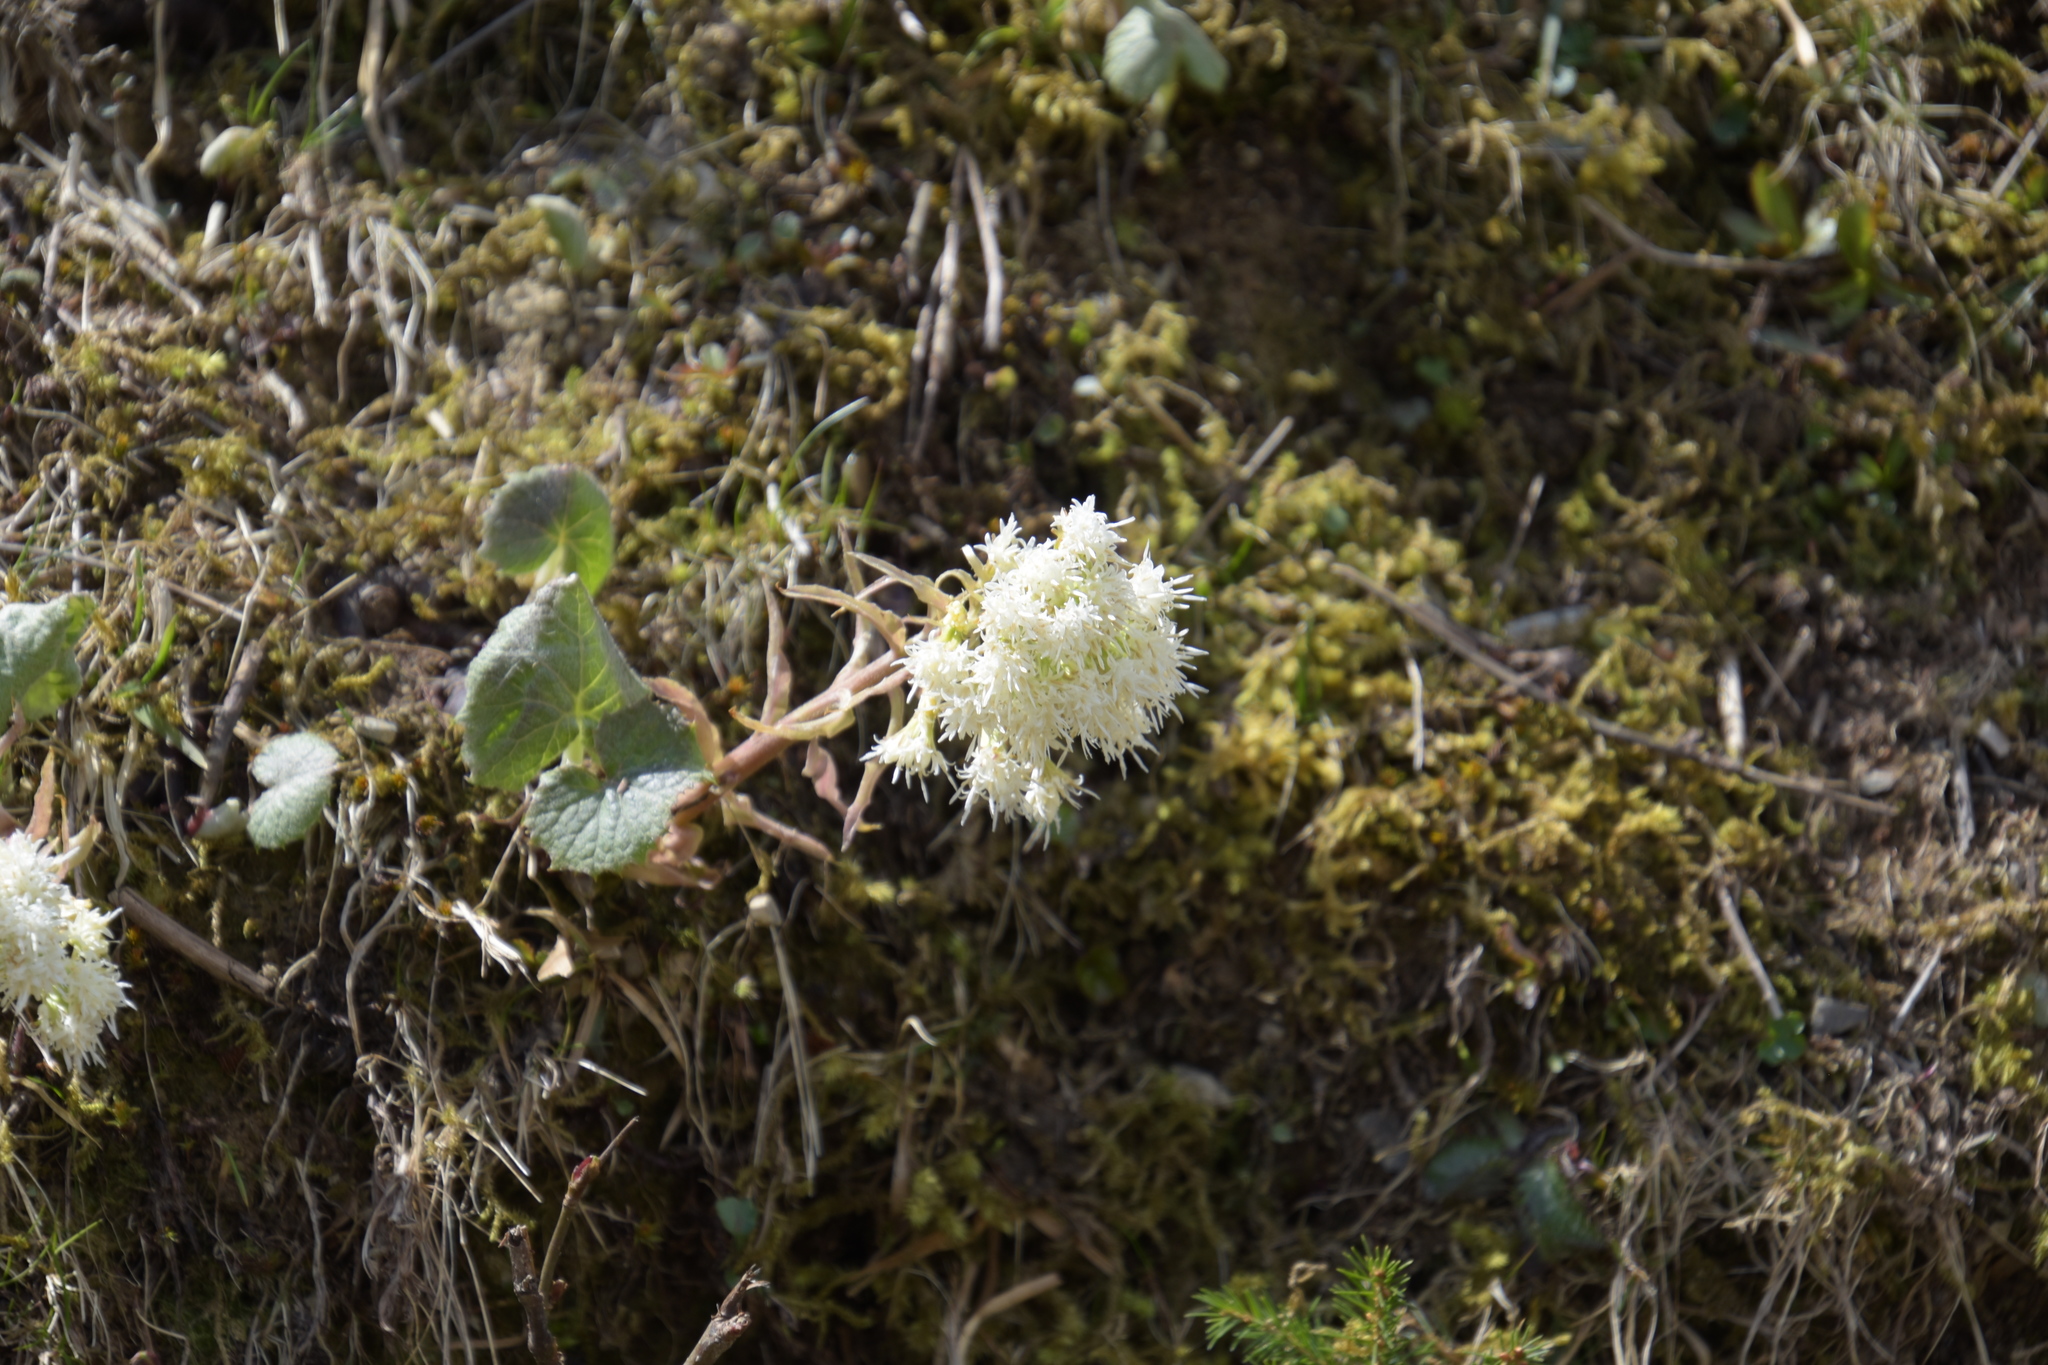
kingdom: Plantae
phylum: Tracheophyta
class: Magnoliopsida
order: Asterales
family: Asteraceae
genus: Petasites
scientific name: Petasites albus
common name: White butterbur
